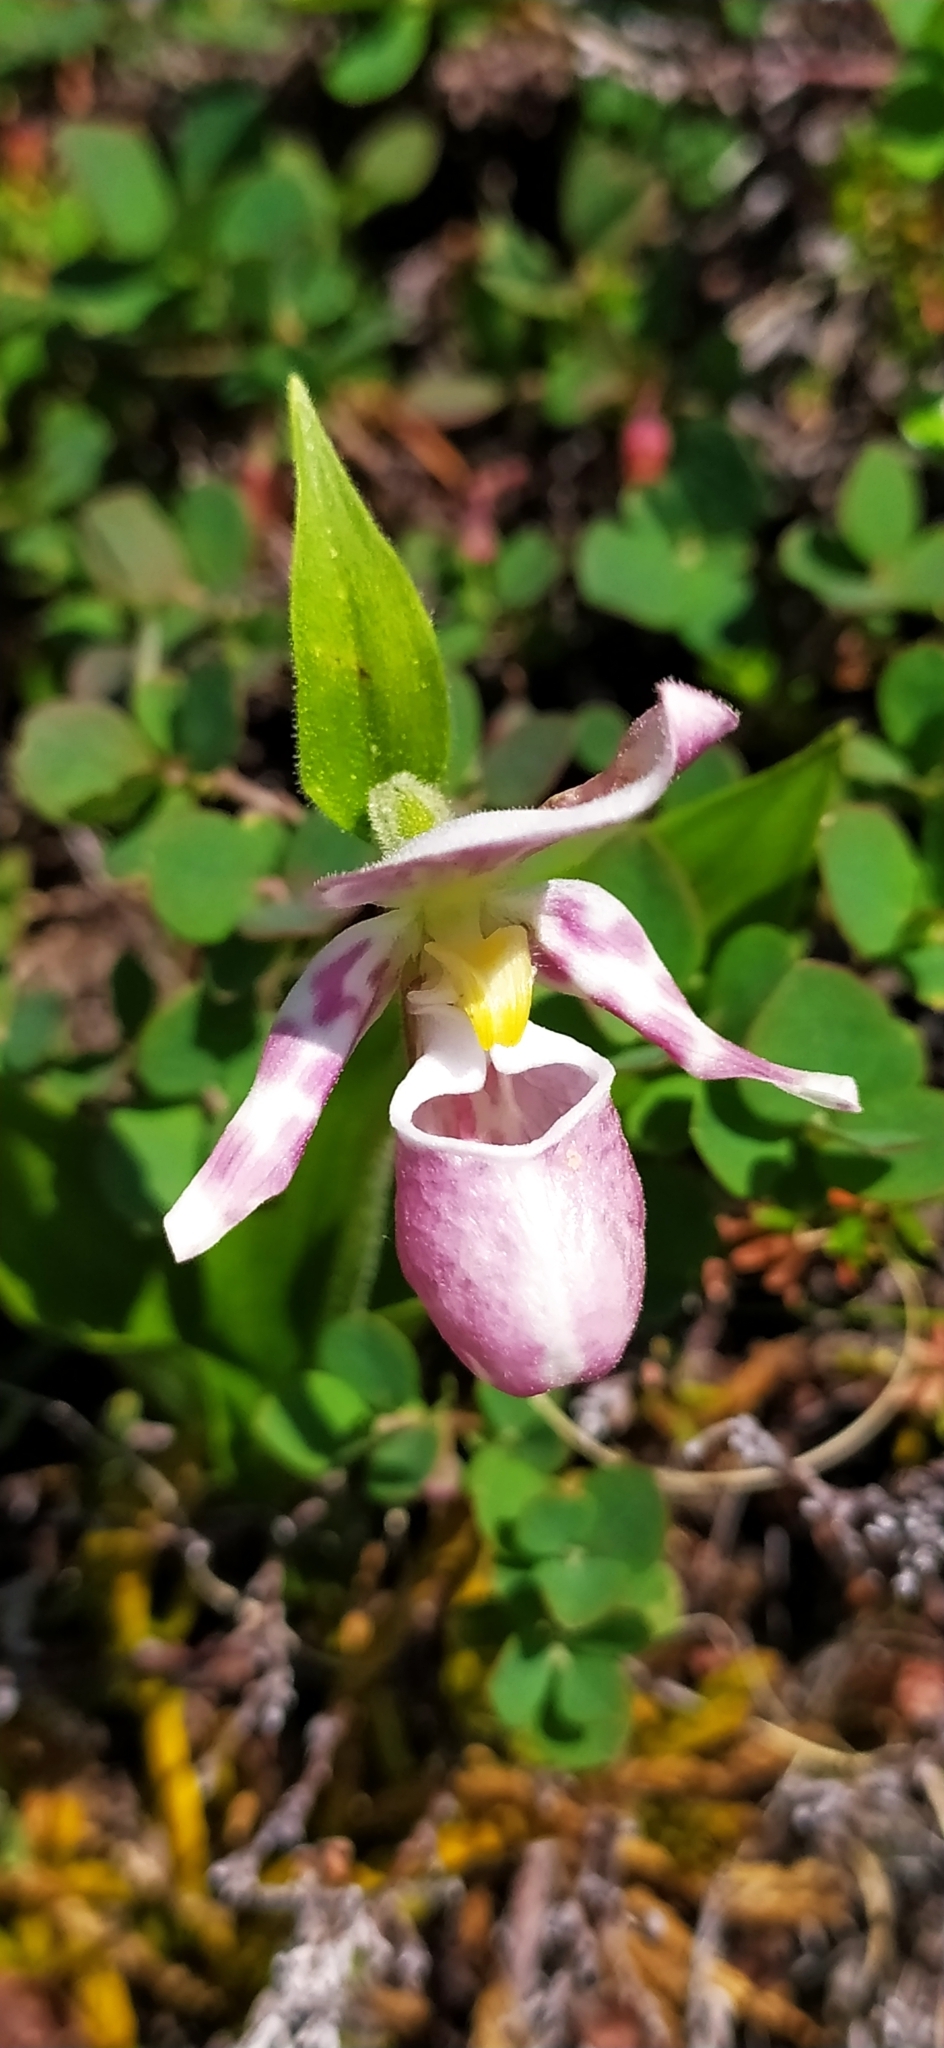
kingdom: Plantae
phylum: Tracheophyta
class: Liliopsida
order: Asparagales
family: Orchidaceae
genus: Cypripedium
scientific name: Cypripedium guttatum
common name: Pink lady slipper
